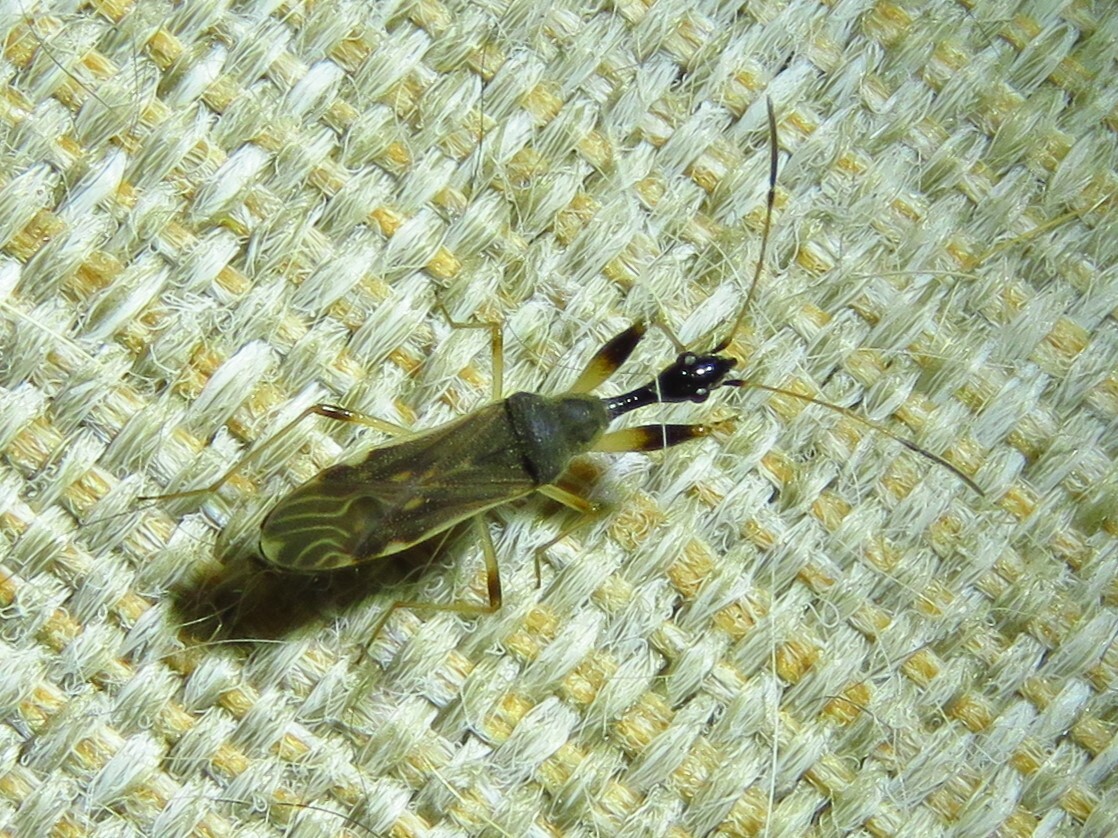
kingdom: Animalia
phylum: Arthropoda
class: Insecta
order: Hemiptera
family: Rhyparochromidae
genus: Myodocha
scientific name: Myodocha serripes
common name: Long-necked seed bug
